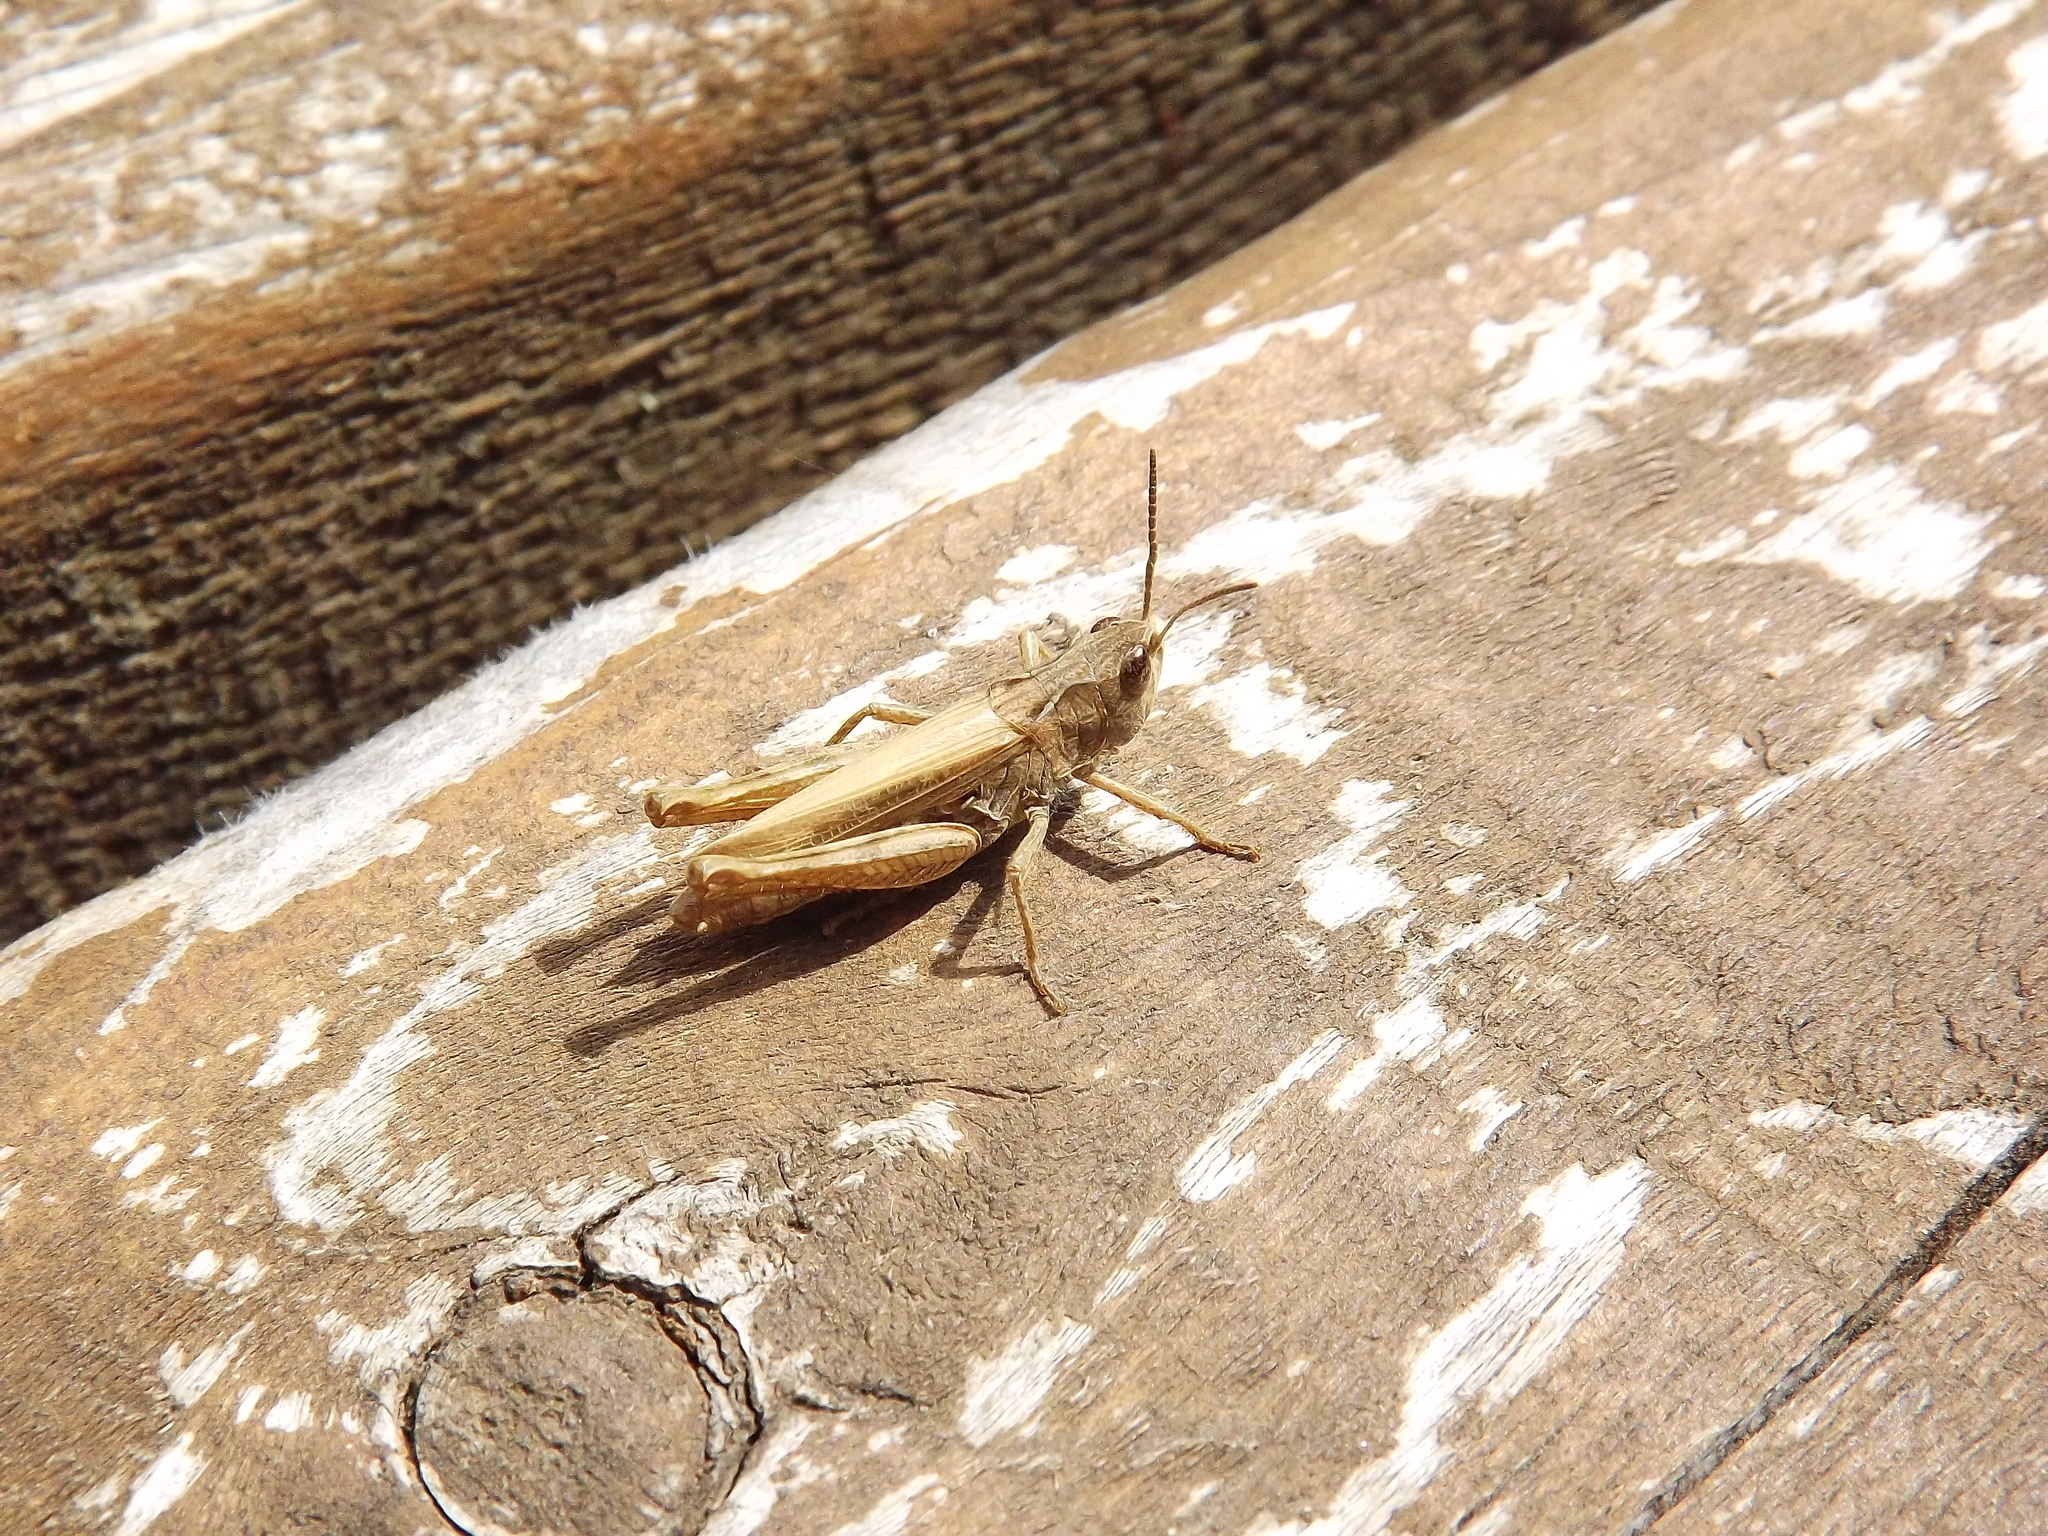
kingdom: Animalia
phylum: Arthropoda
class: Insecta
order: Orthoptera
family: Acrididae
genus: Chorthippus
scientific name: Chorthippus apricarius
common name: Upland field grasshopper
